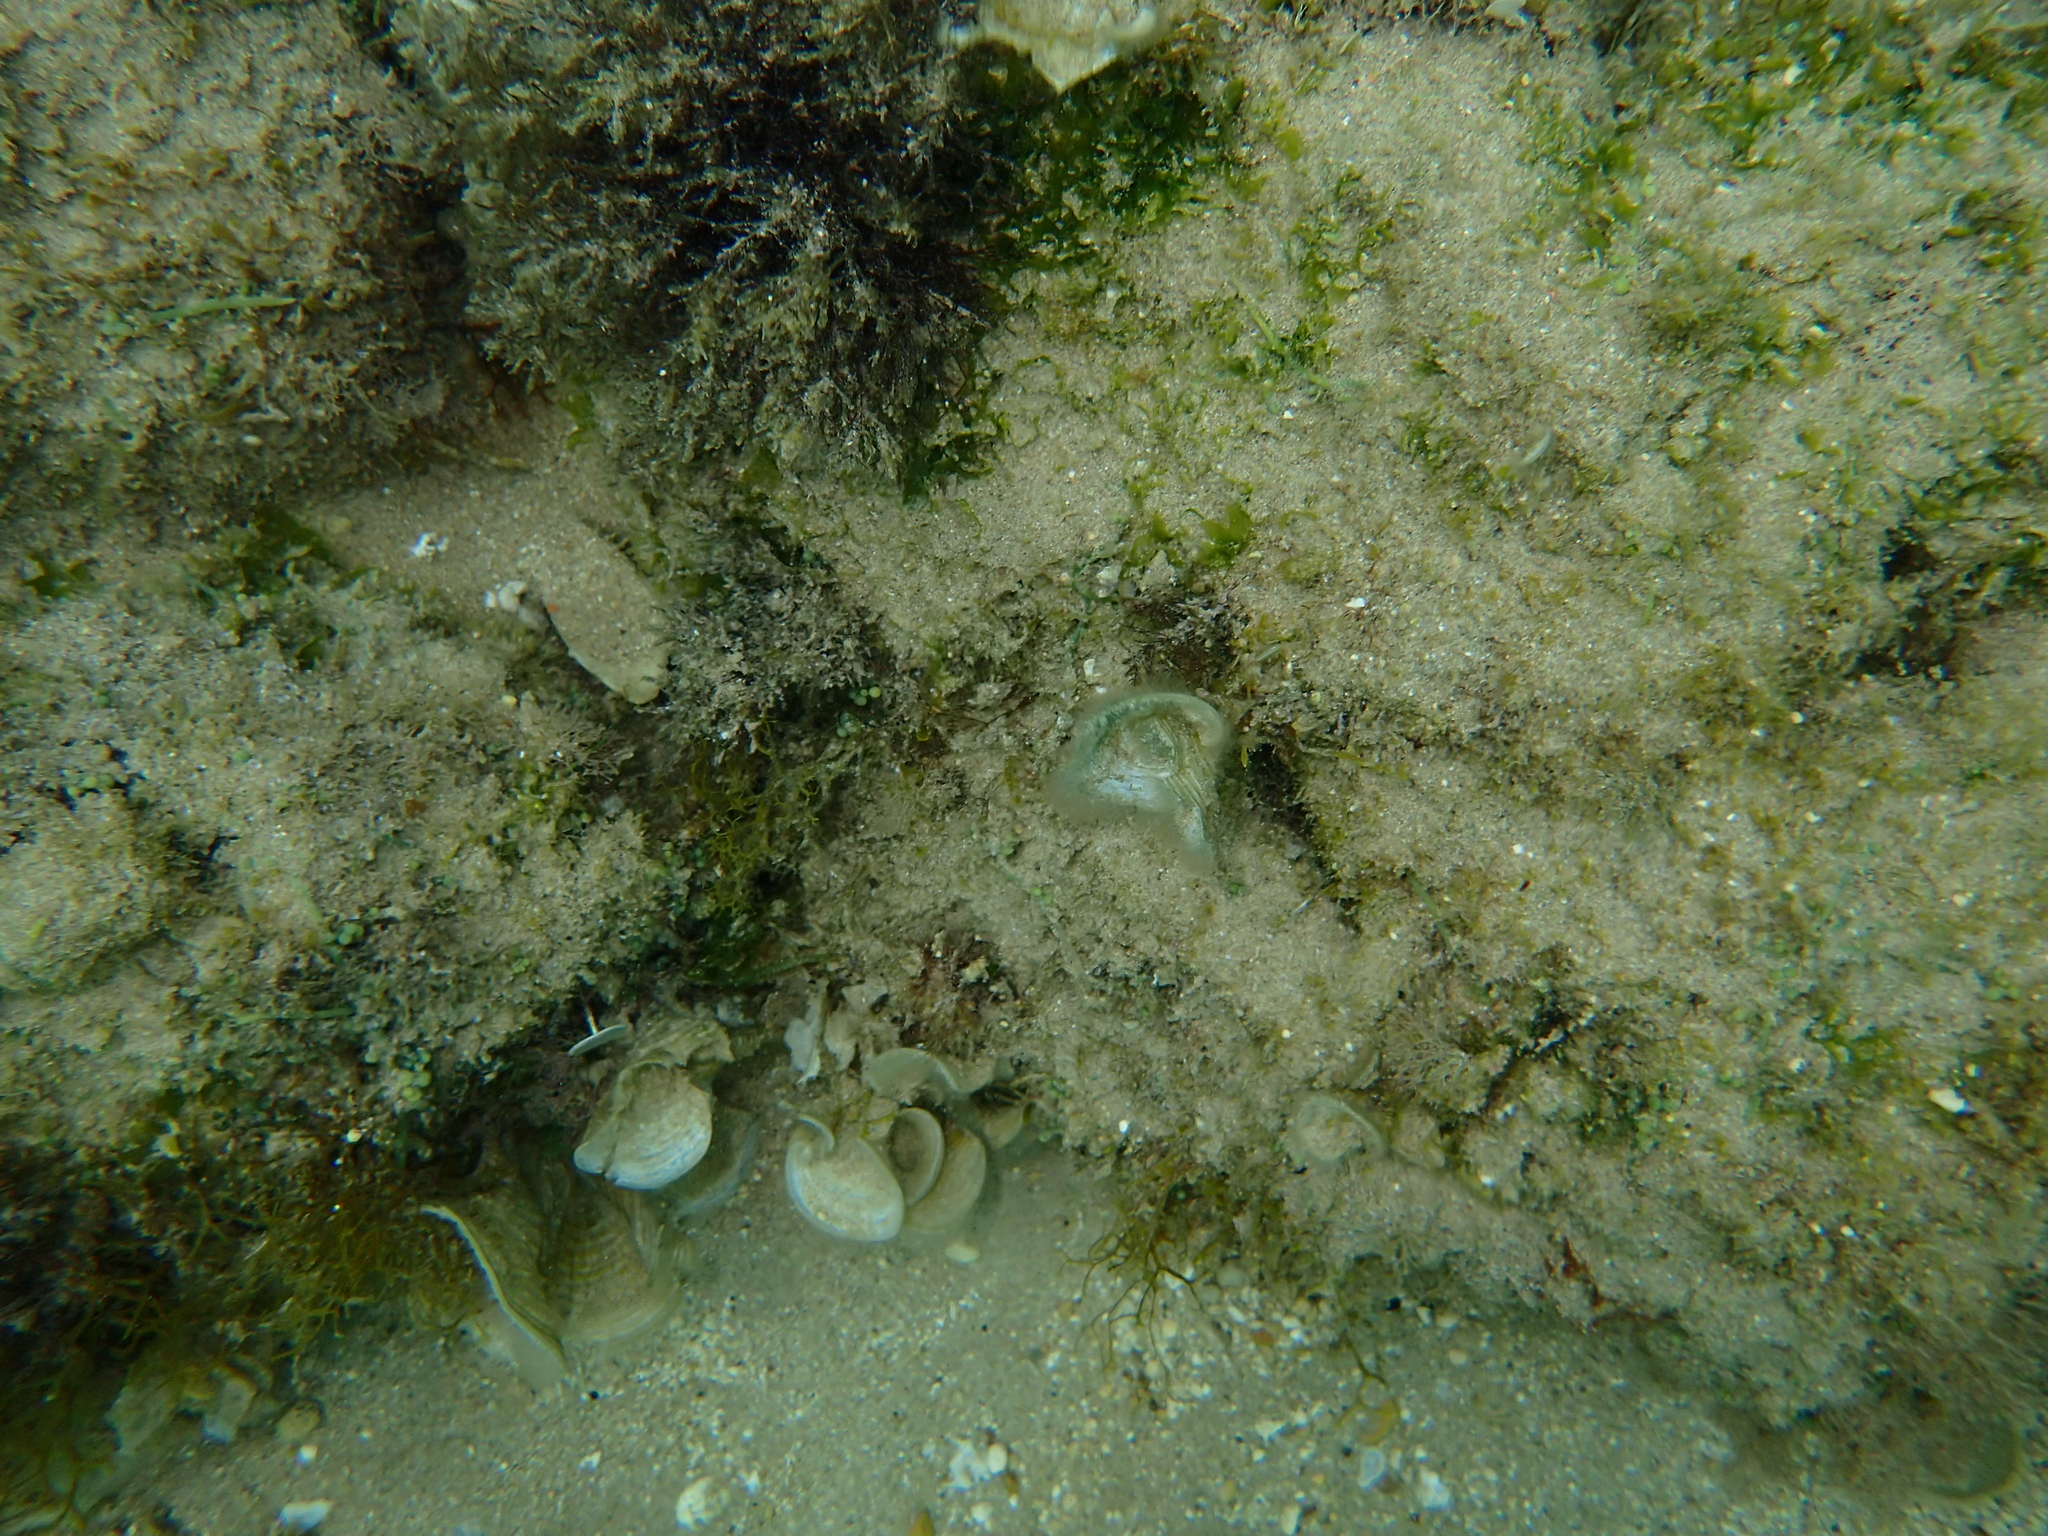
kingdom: Chromista
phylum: Ochrophyta
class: Phaeophyceae
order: Dictyotales
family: Dictyotaceae
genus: Padina
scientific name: Padina
